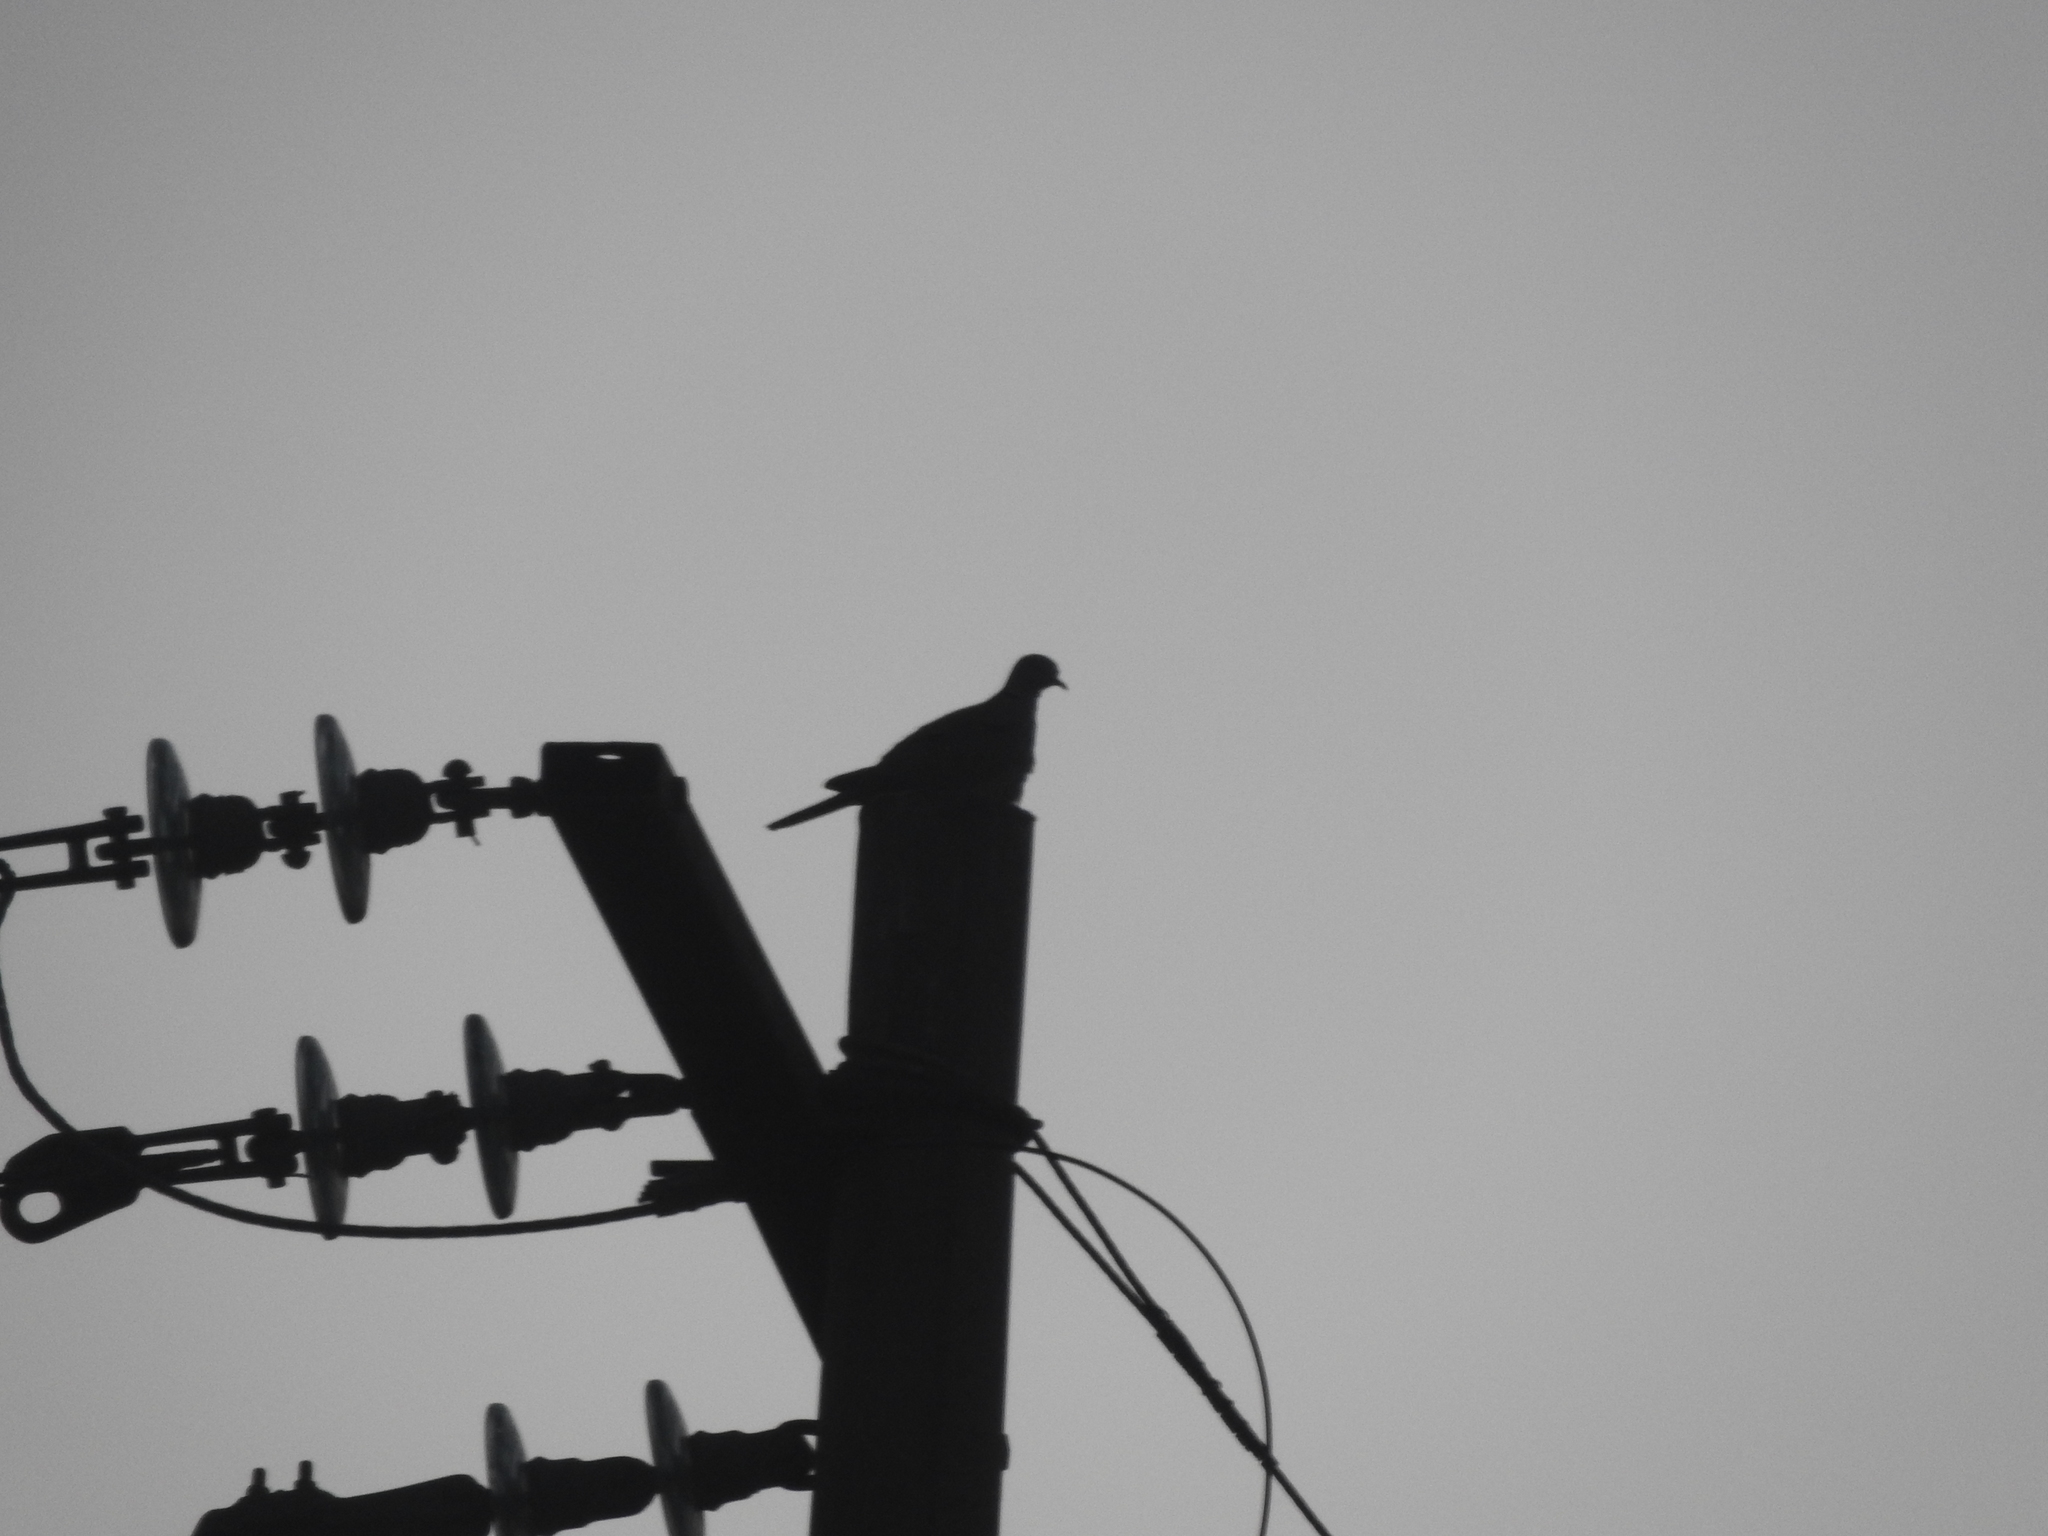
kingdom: Animalia
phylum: Chordata
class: Aves
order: Columbiformes
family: Columbidae
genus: Streptopelia
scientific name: Streptopelia decaocto
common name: Eurasian collared dove
